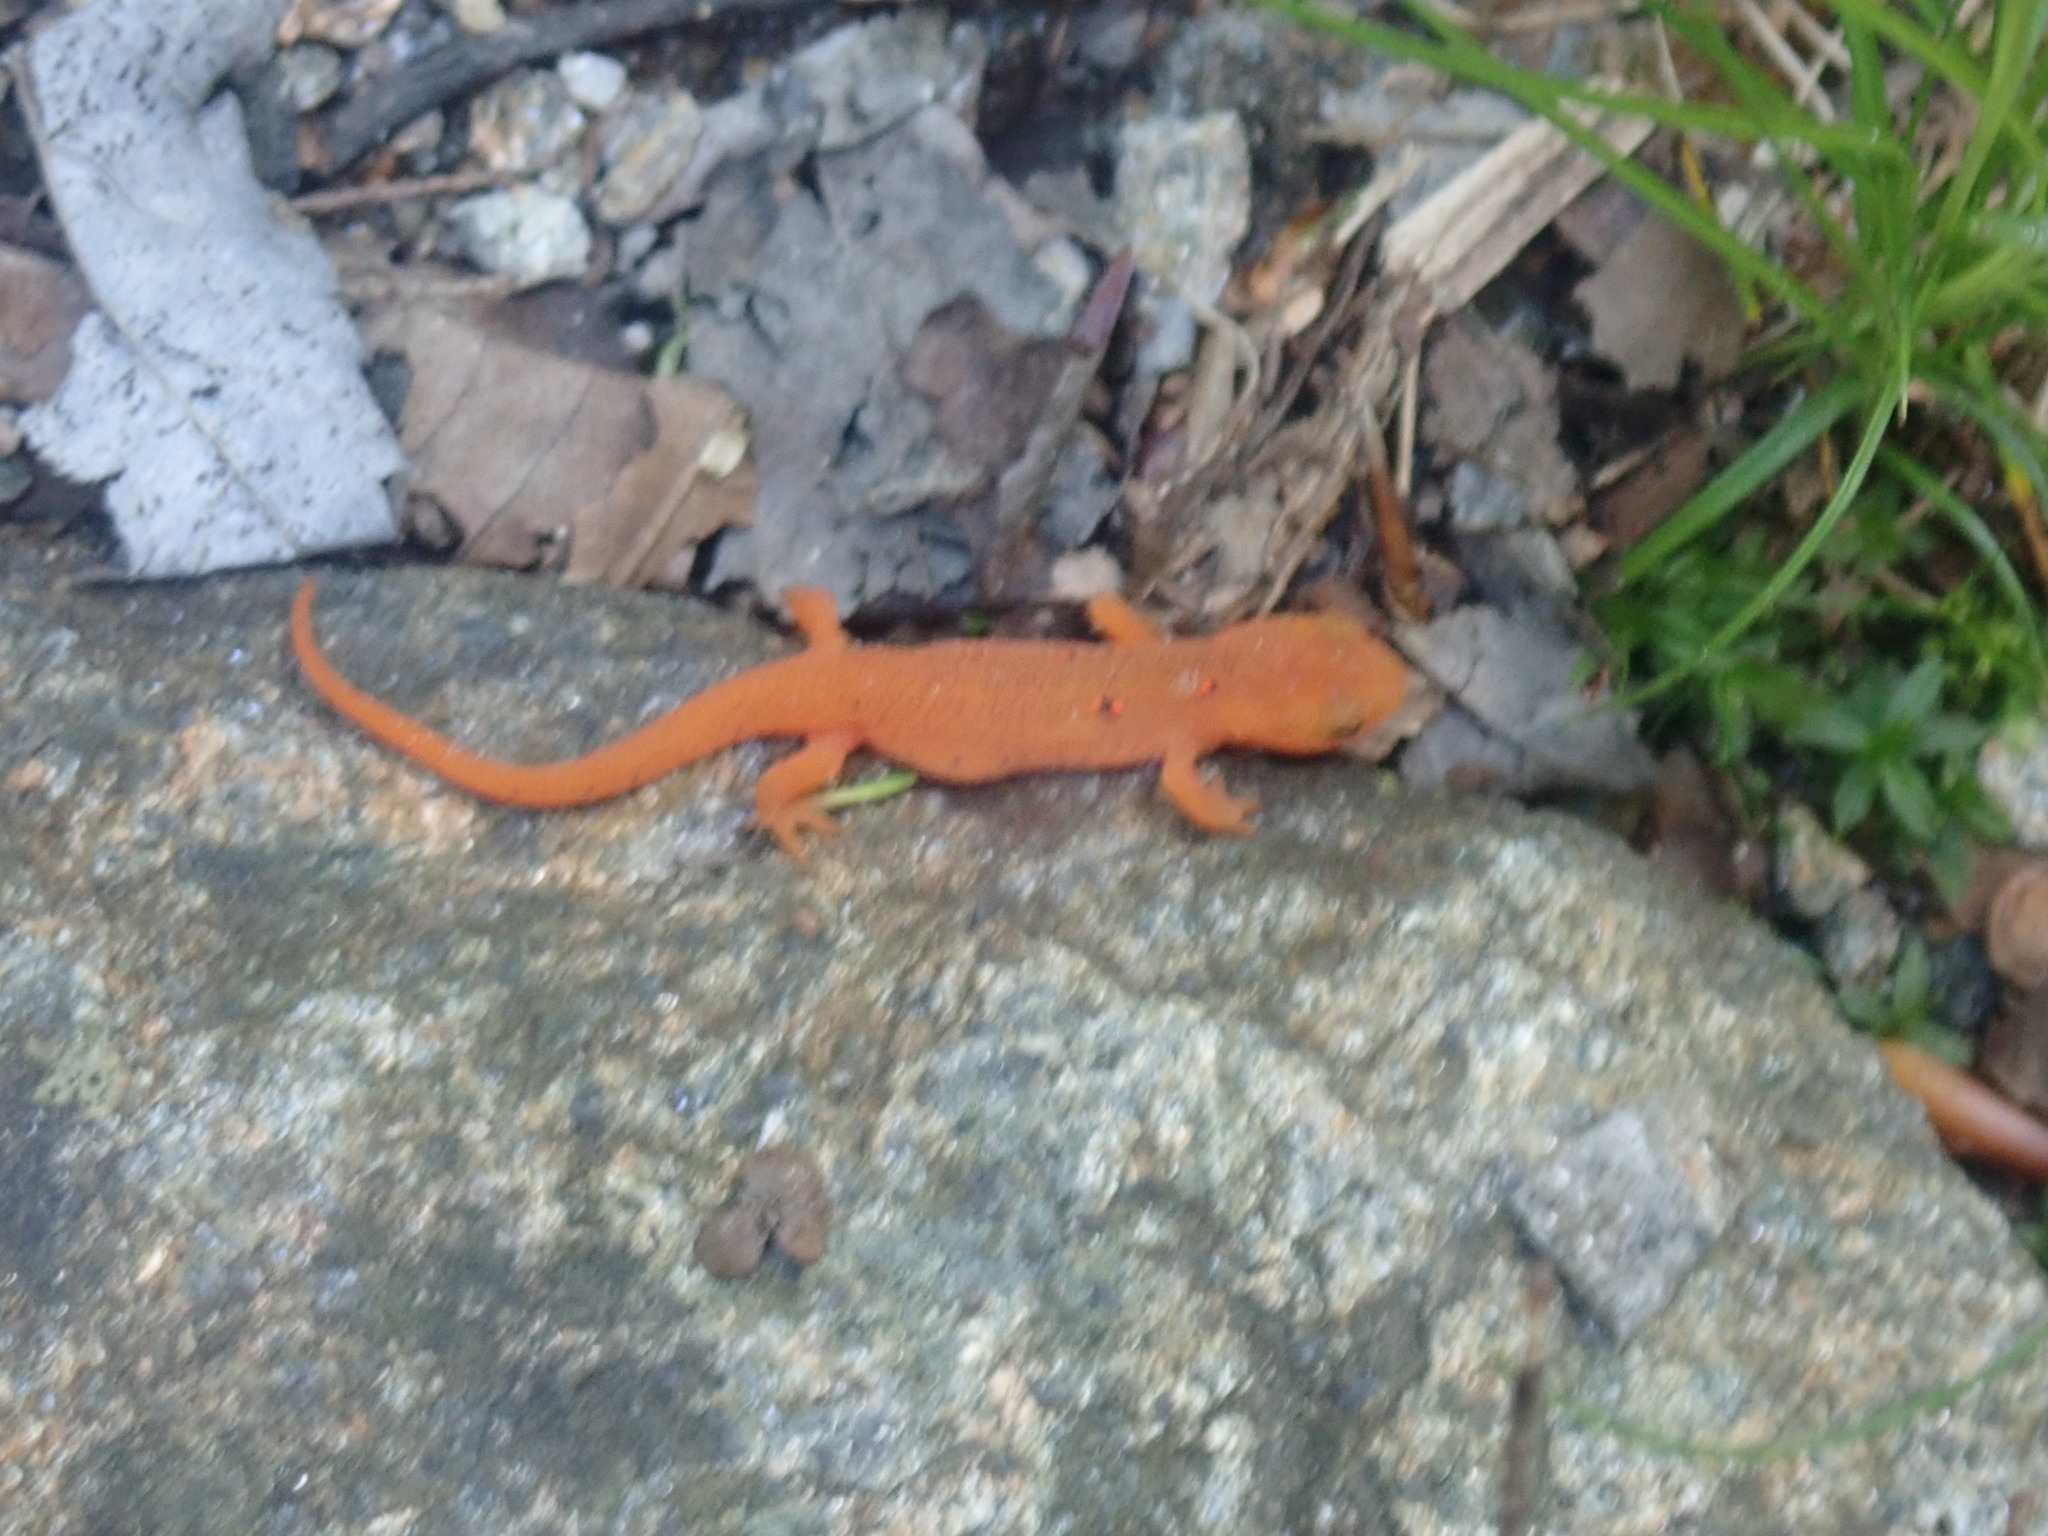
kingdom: Animalia
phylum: Chordata
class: Amphibia
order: Caudata
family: Salamandridae
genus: Notophthalmus
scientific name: Notophthalmus viridescens
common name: Eastern newt
